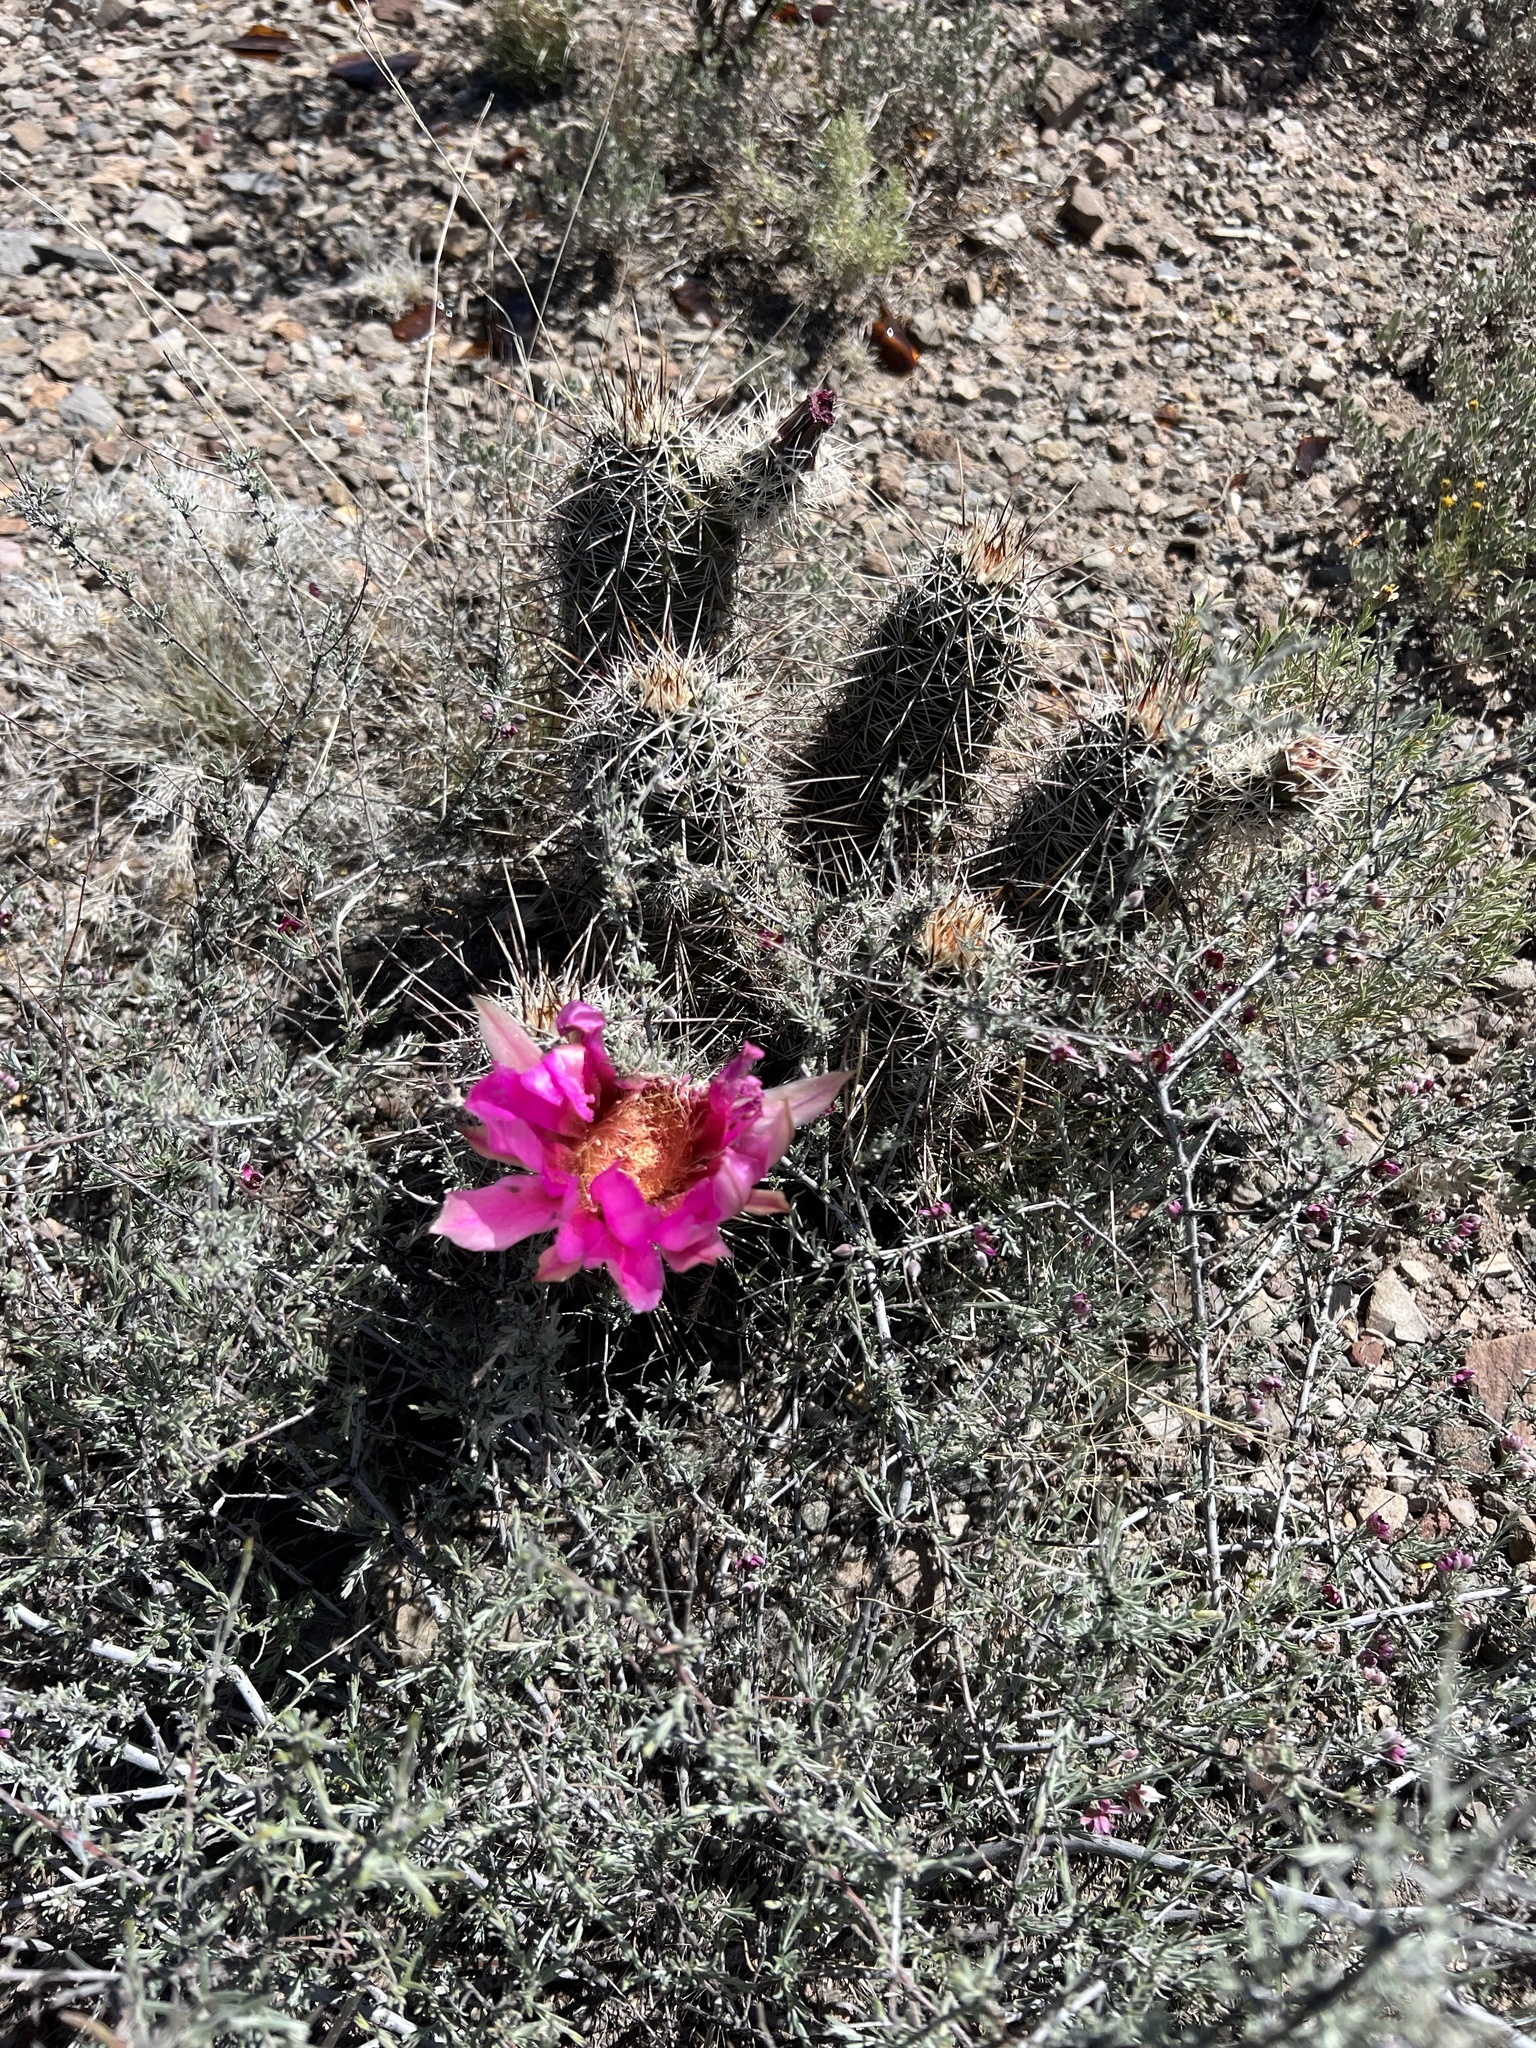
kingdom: Plantae
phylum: Tracheophyta
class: Magnoliopsida
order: Caryophyllales
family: Cactaceae
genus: Echinocereus
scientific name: Echinocereus fasciculatus
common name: Bundle hedgehog
